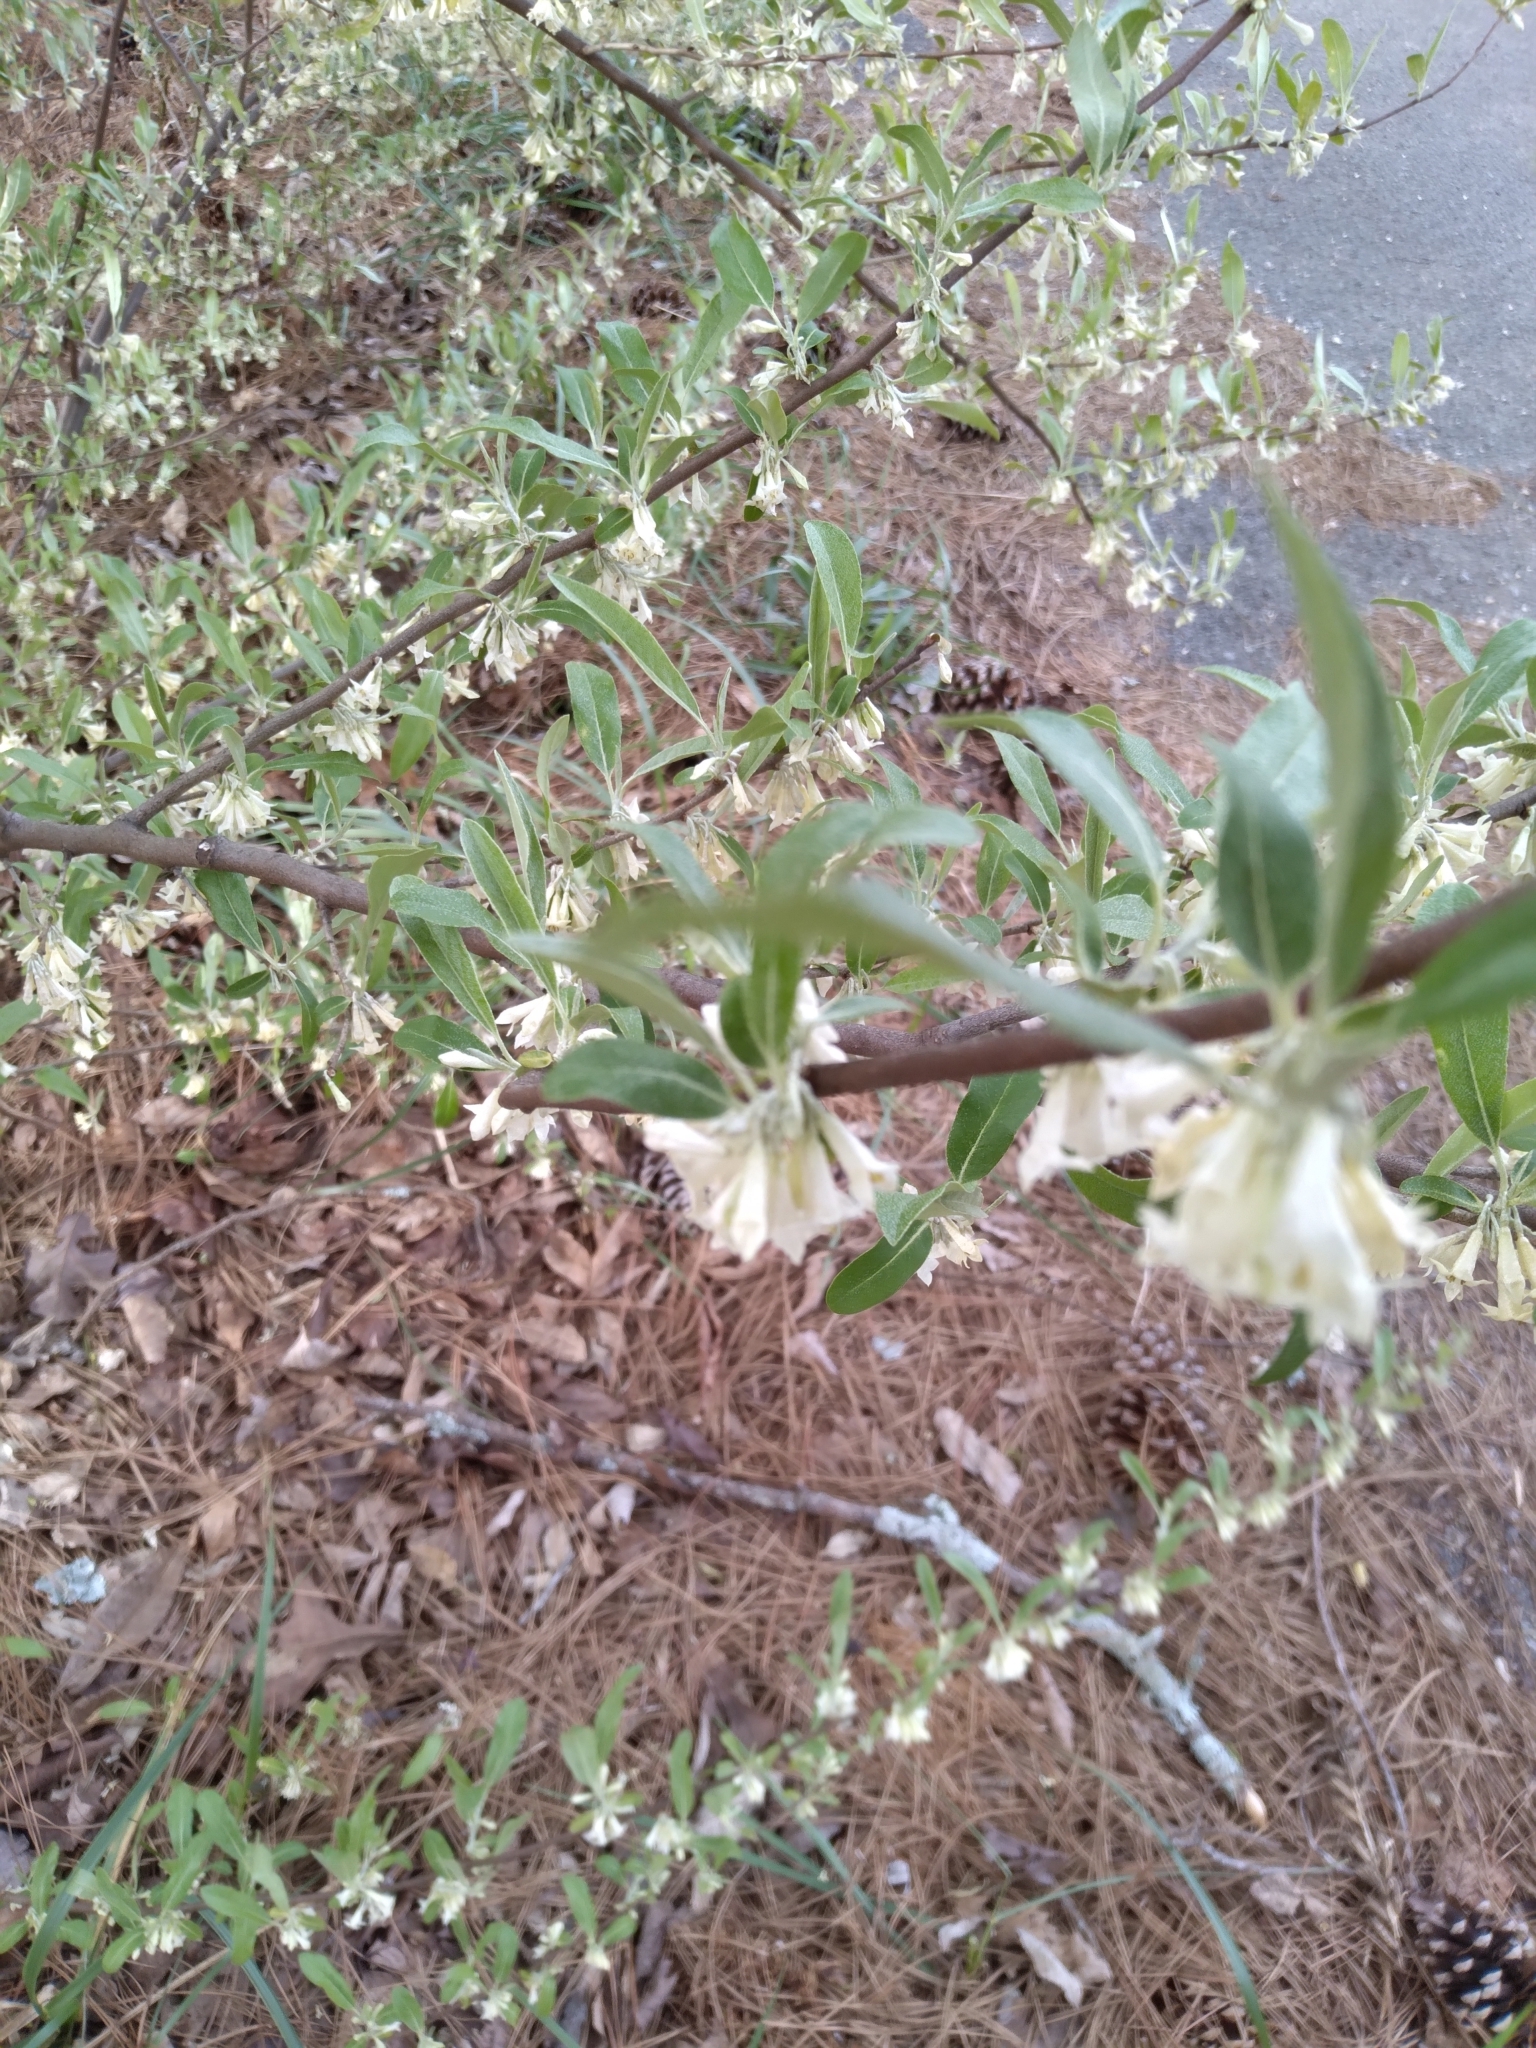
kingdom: Plantae
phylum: Tracheophyta
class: Magnoliopsida
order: Rosales
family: Elaeagnaceae
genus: Elaeagnus
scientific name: Elaeagnus umbellata
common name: Autumn olive
